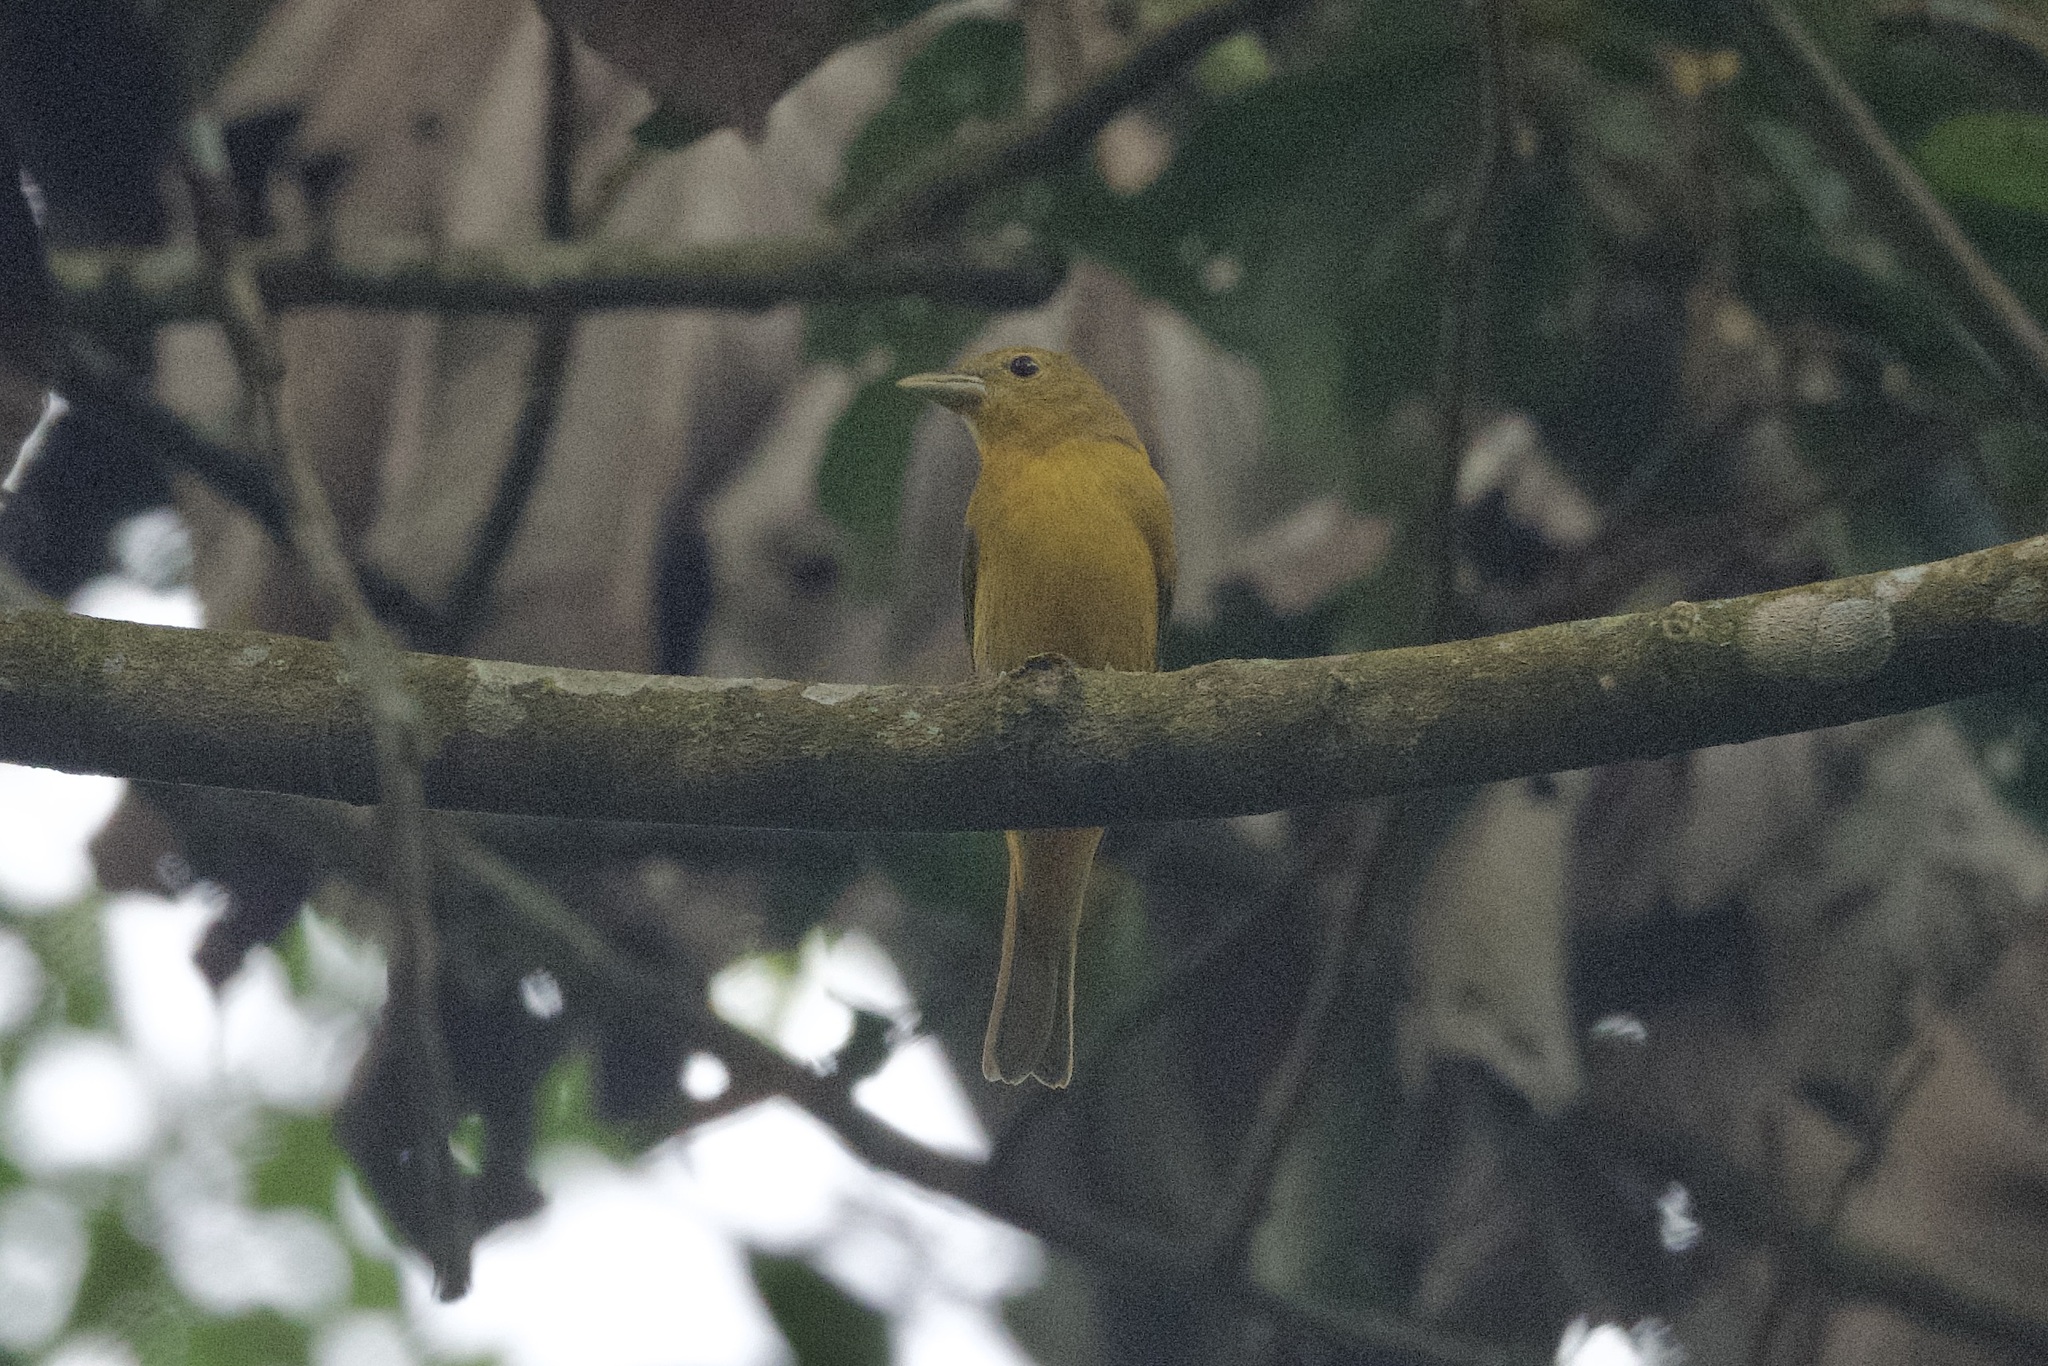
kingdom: Animalia
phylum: Chordata
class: Aves
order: Passeriformes
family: Cardinalidae
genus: Piranga
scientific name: Piranga rubra
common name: Summer tanager
